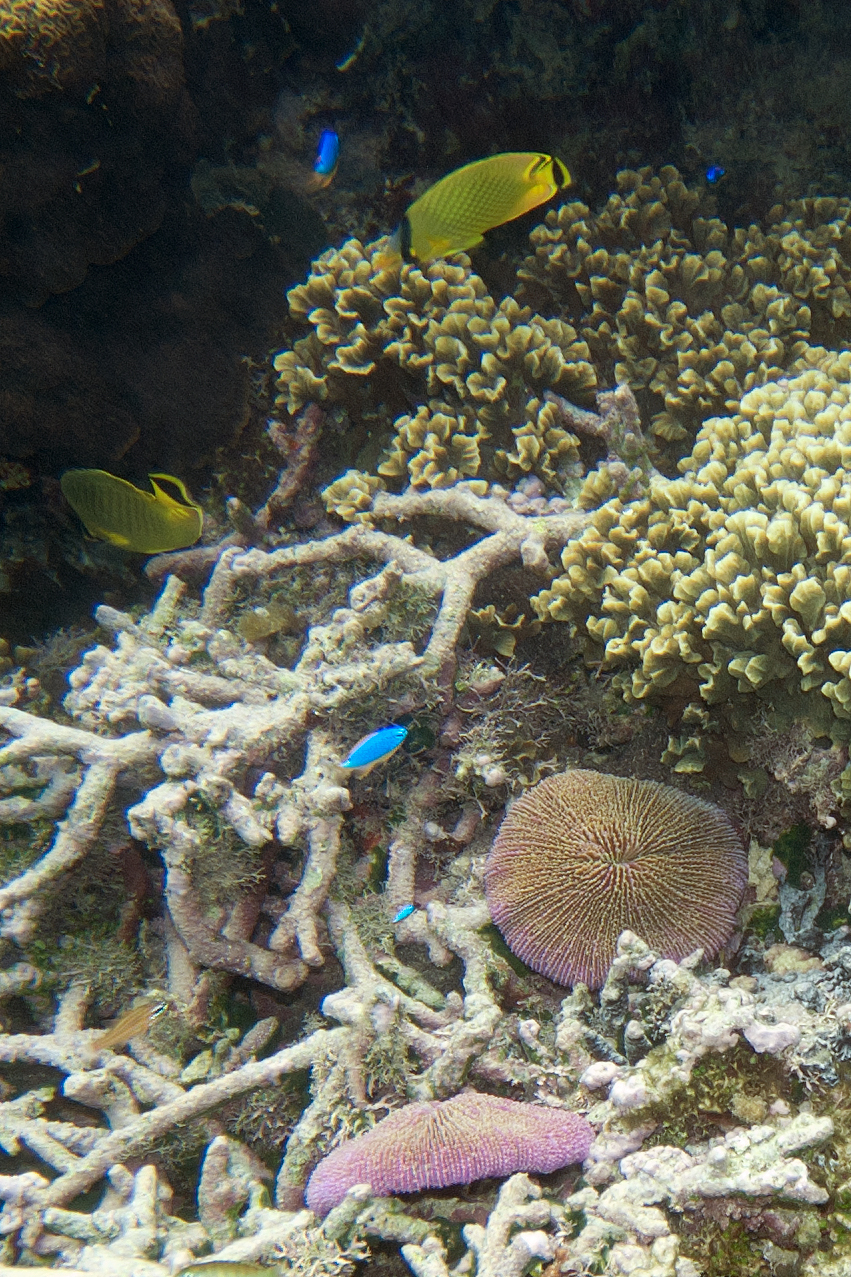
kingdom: Animalia
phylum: Cnidaria
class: Anthozoa
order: Scleractinia
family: Fungiidae
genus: Fungia
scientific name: Fungia fungites
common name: Mushroom coral
